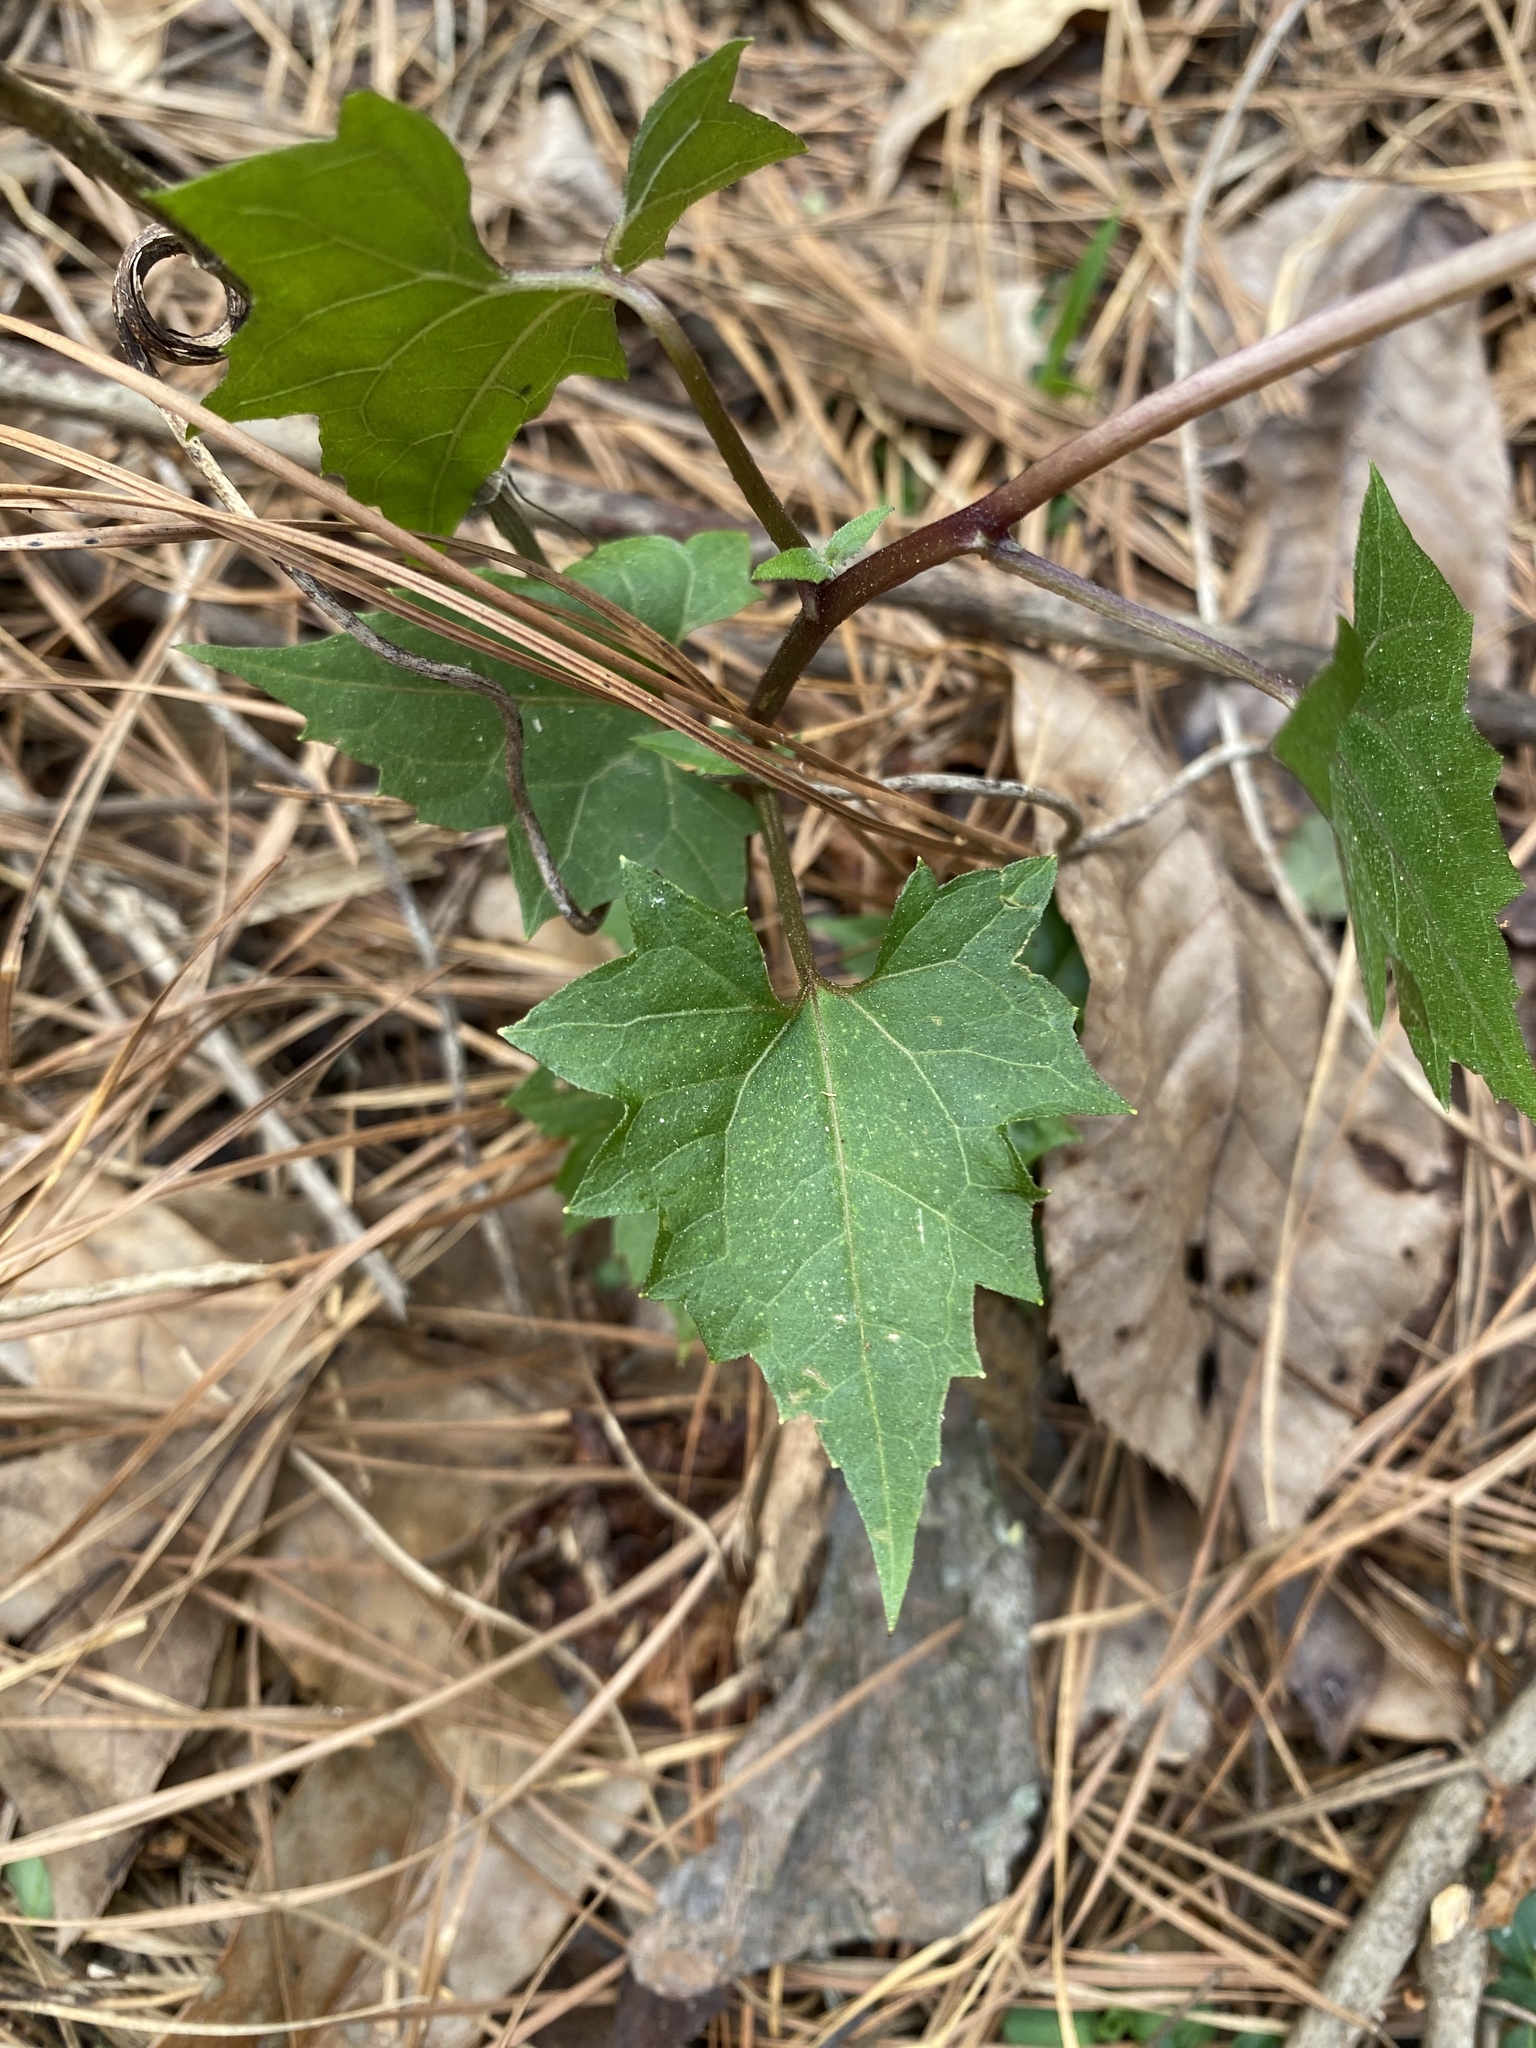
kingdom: Plantae
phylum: Tracheophyta
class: Magnoliopsida
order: Asterales
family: Asteraceae
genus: Mikania
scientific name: Mikania scandens
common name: Climbing hempvine
